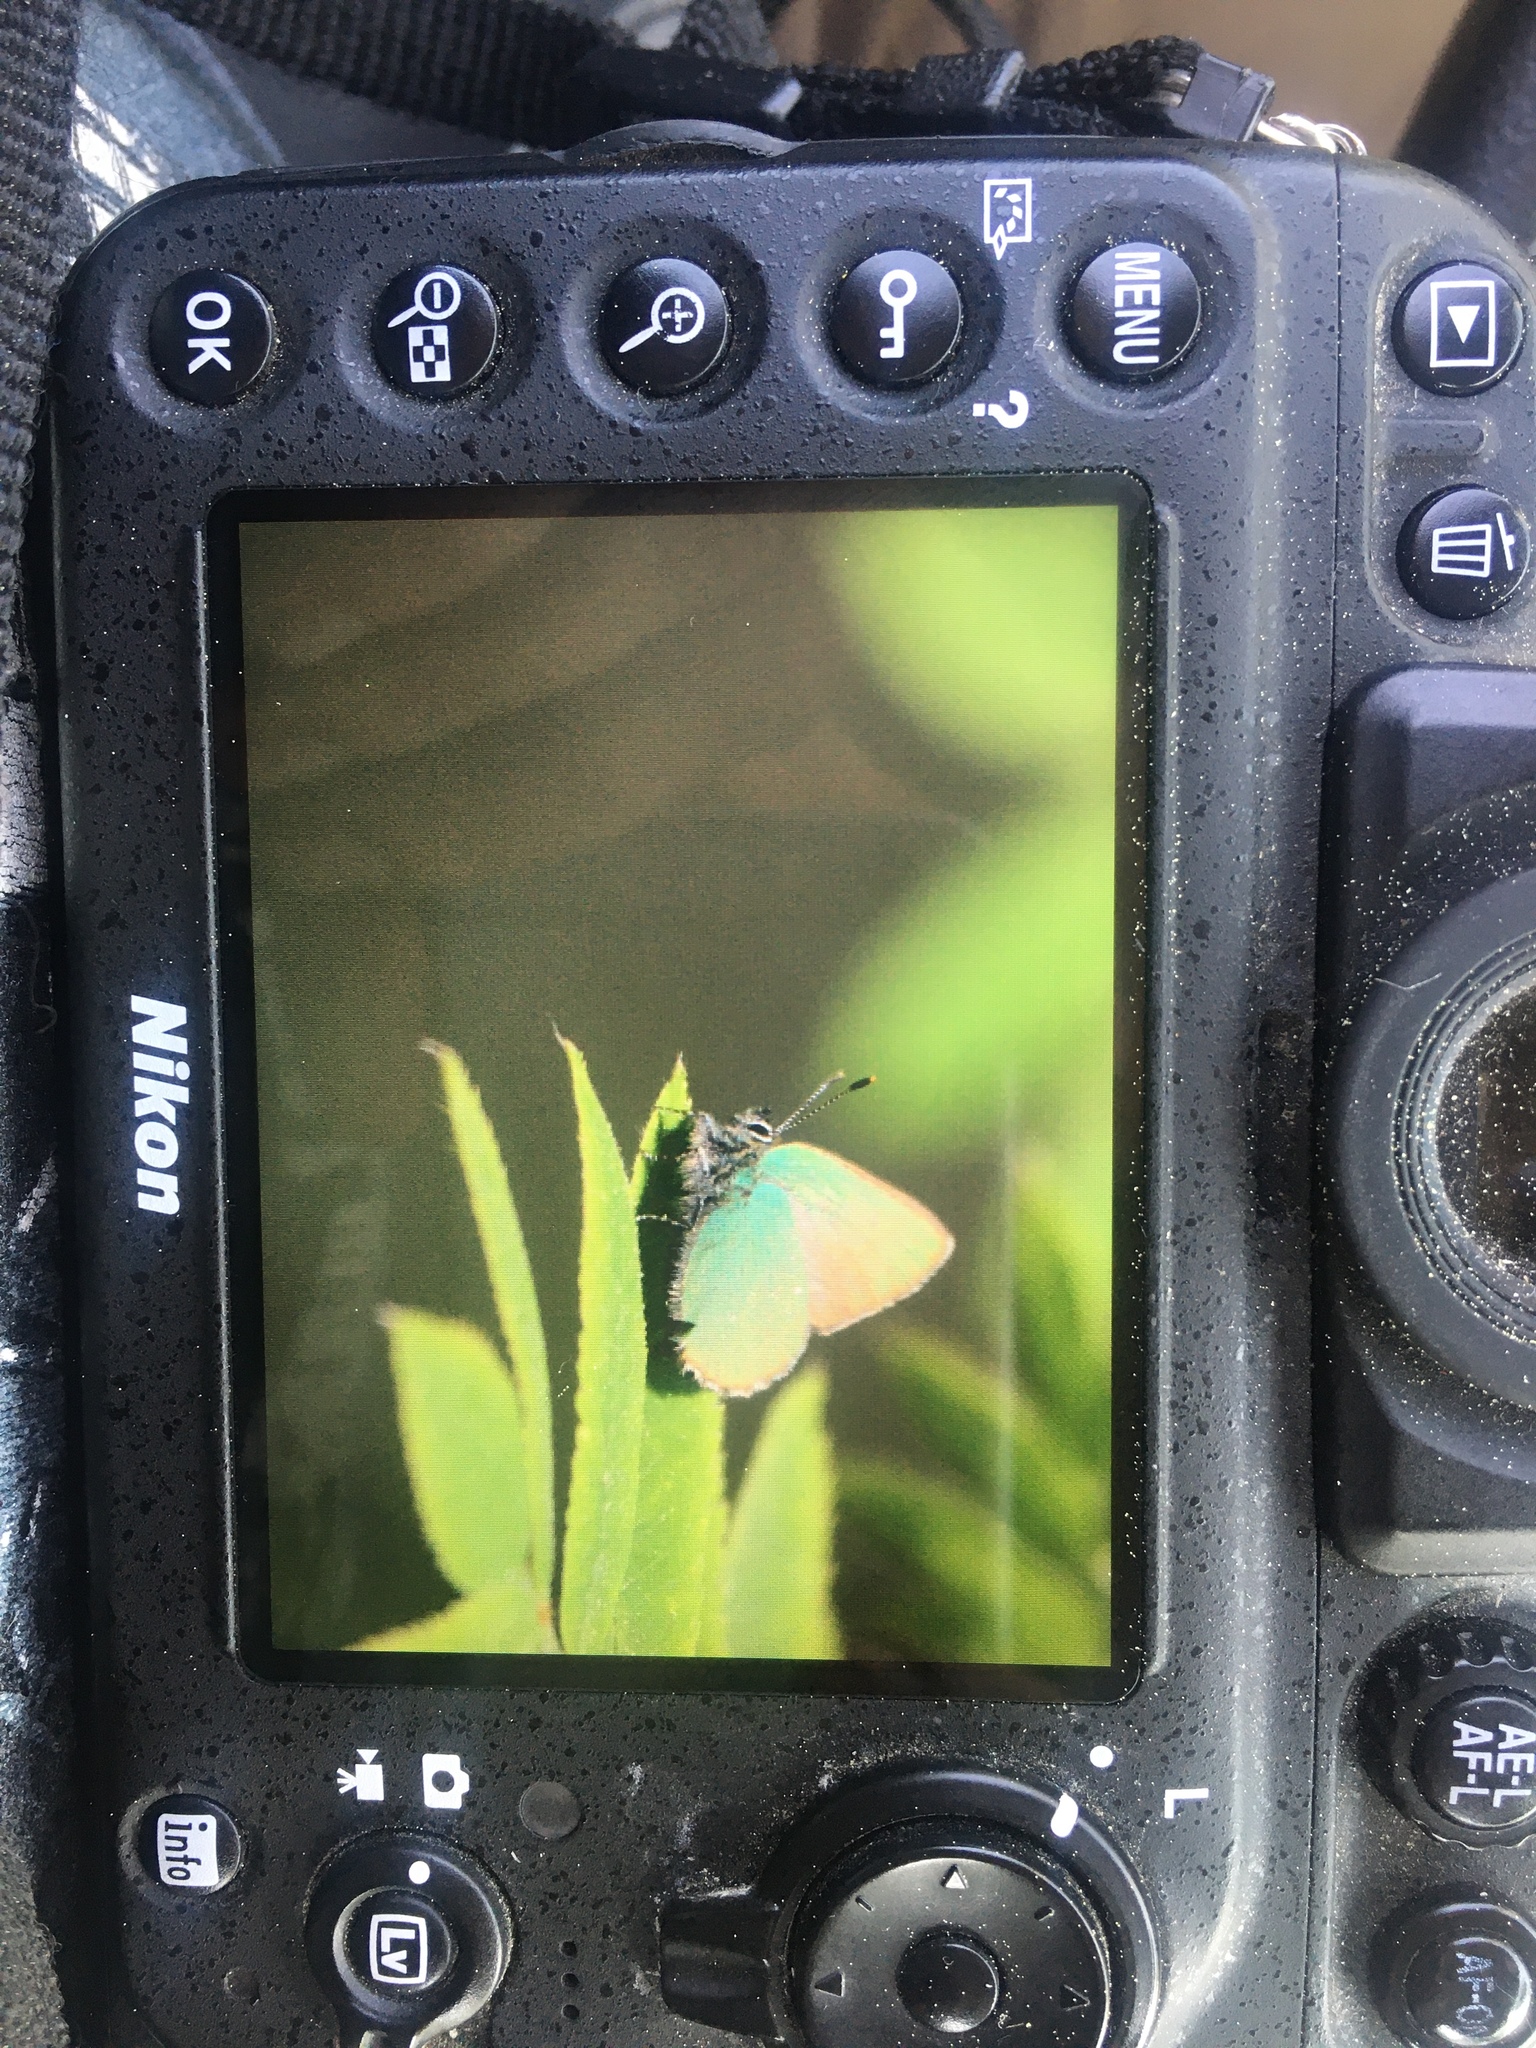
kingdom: Animalia
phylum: Arthropoda
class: Insecta
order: Lepidoptera
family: Lycaenidae
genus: Callophrys
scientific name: Callophrys rubi
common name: Green hairstreak
